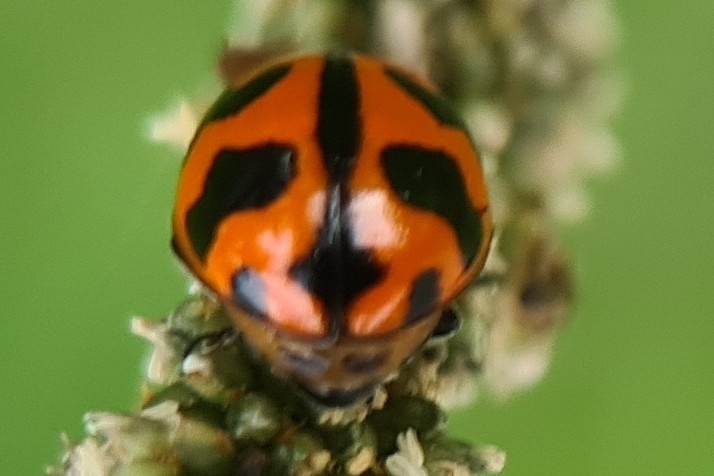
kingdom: Animalia
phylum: Arthropoda
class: Insecta
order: Coleoptera
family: Coccinellidae
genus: Coccinella
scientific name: Coccinella transversalis
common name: Transverse lady beetle
